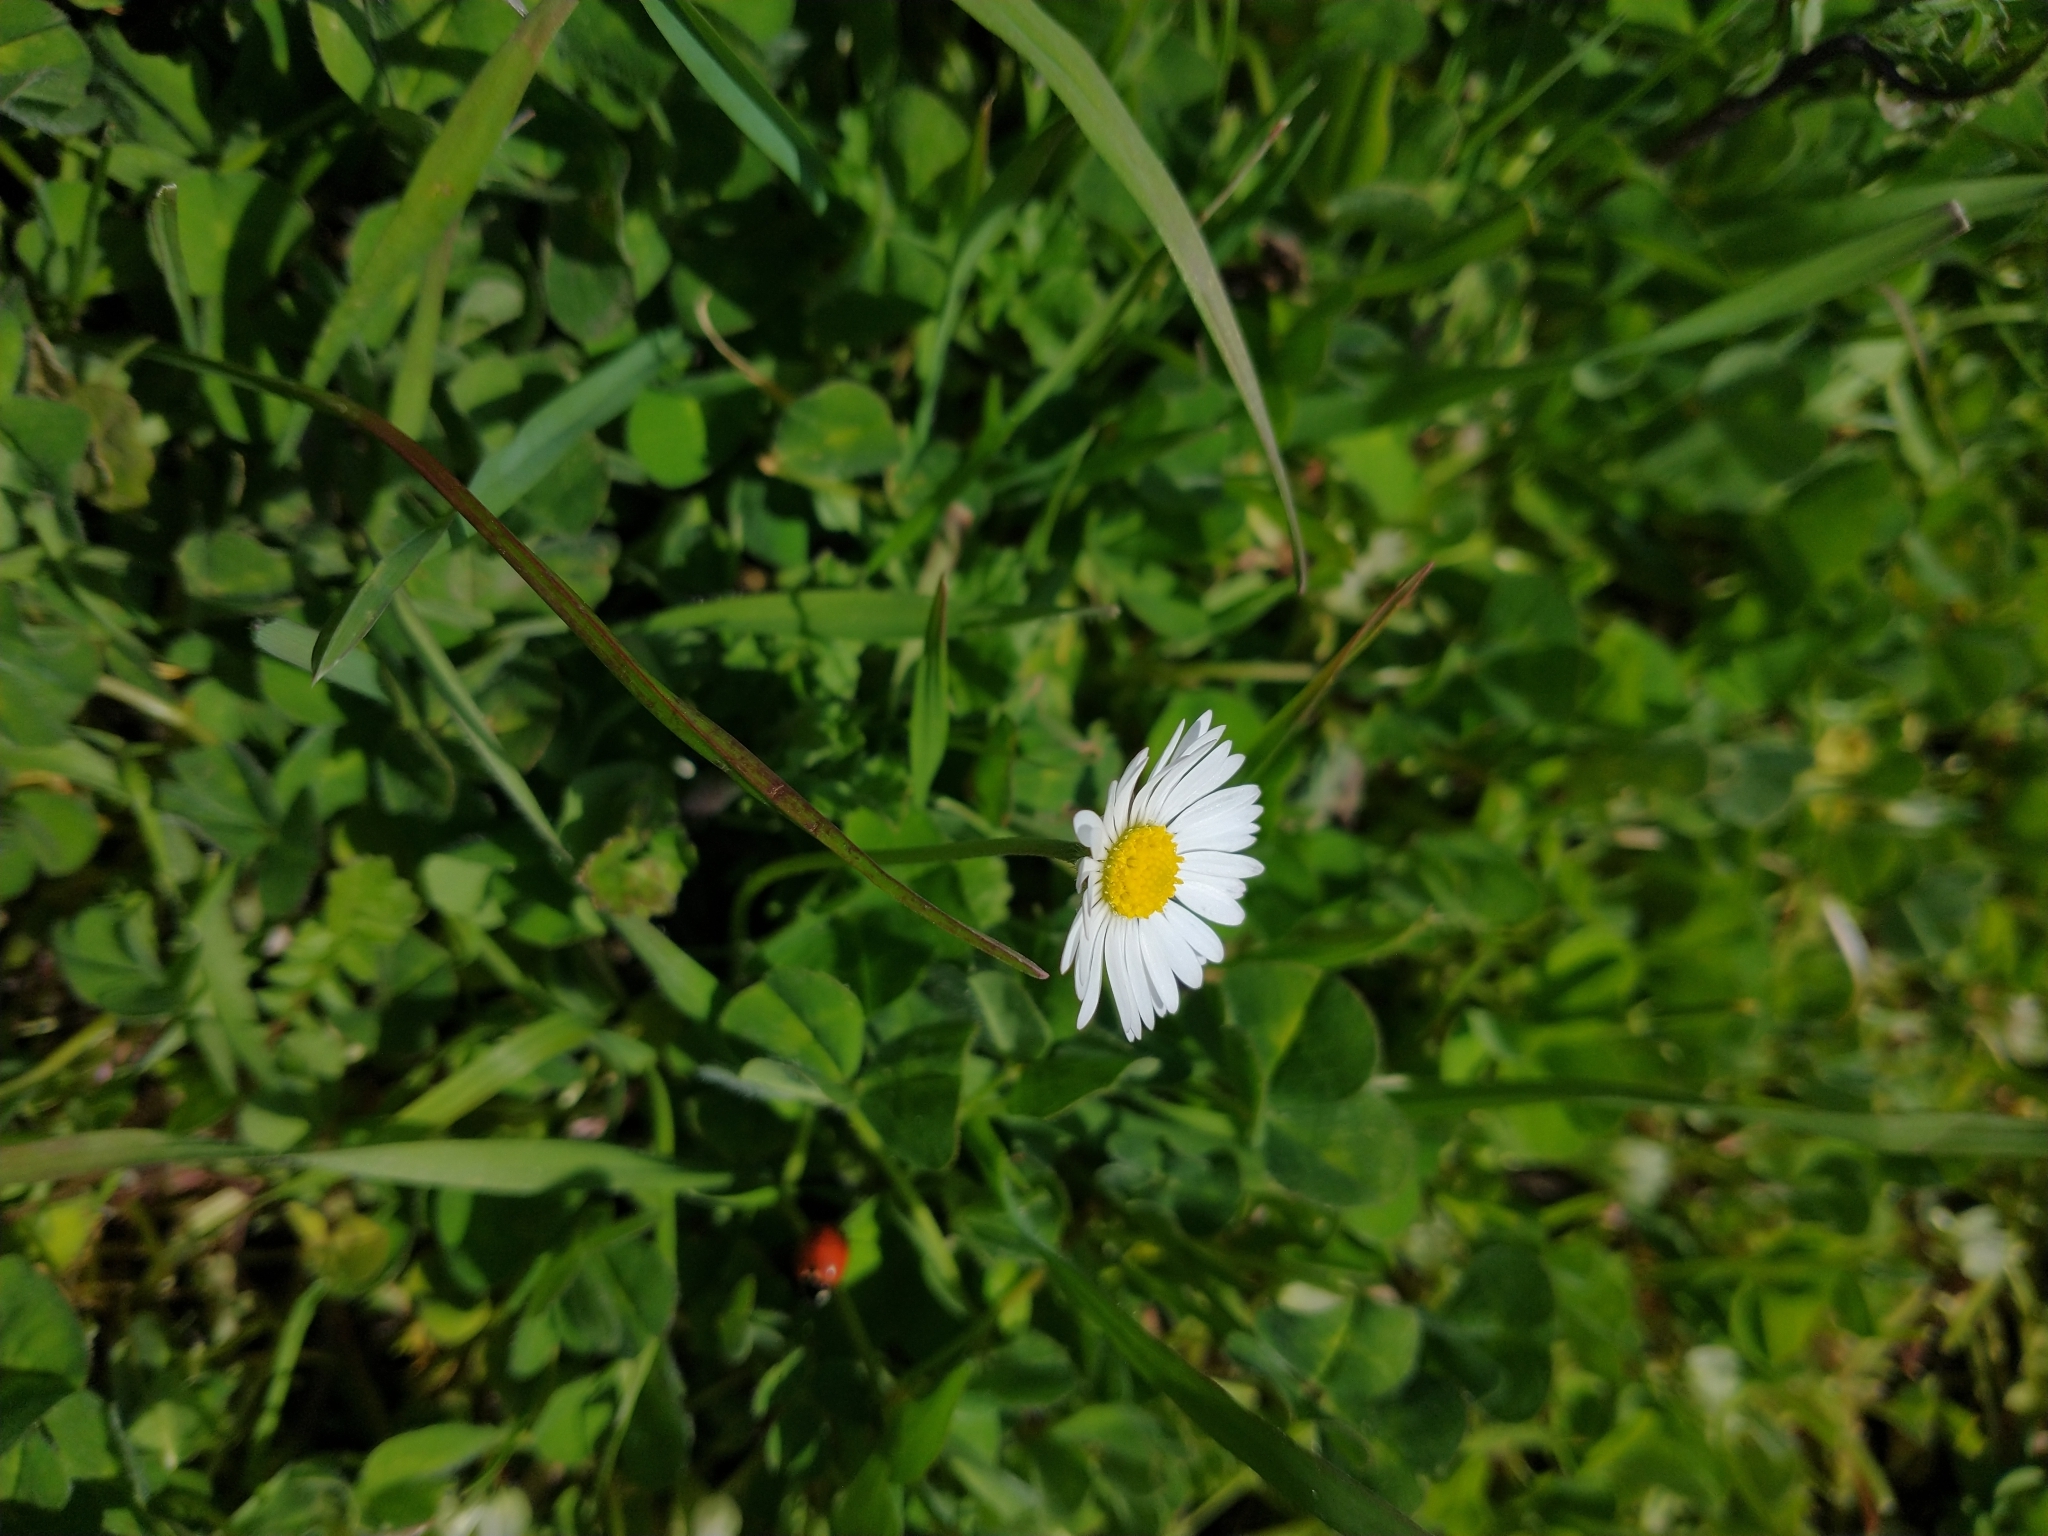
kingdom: Plantae
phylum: Tracheophyta
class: Magnoliopsida
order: Asterales
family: Asteraceae
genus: Bellis
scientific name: Bellis perennis
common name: Lawndaisy
